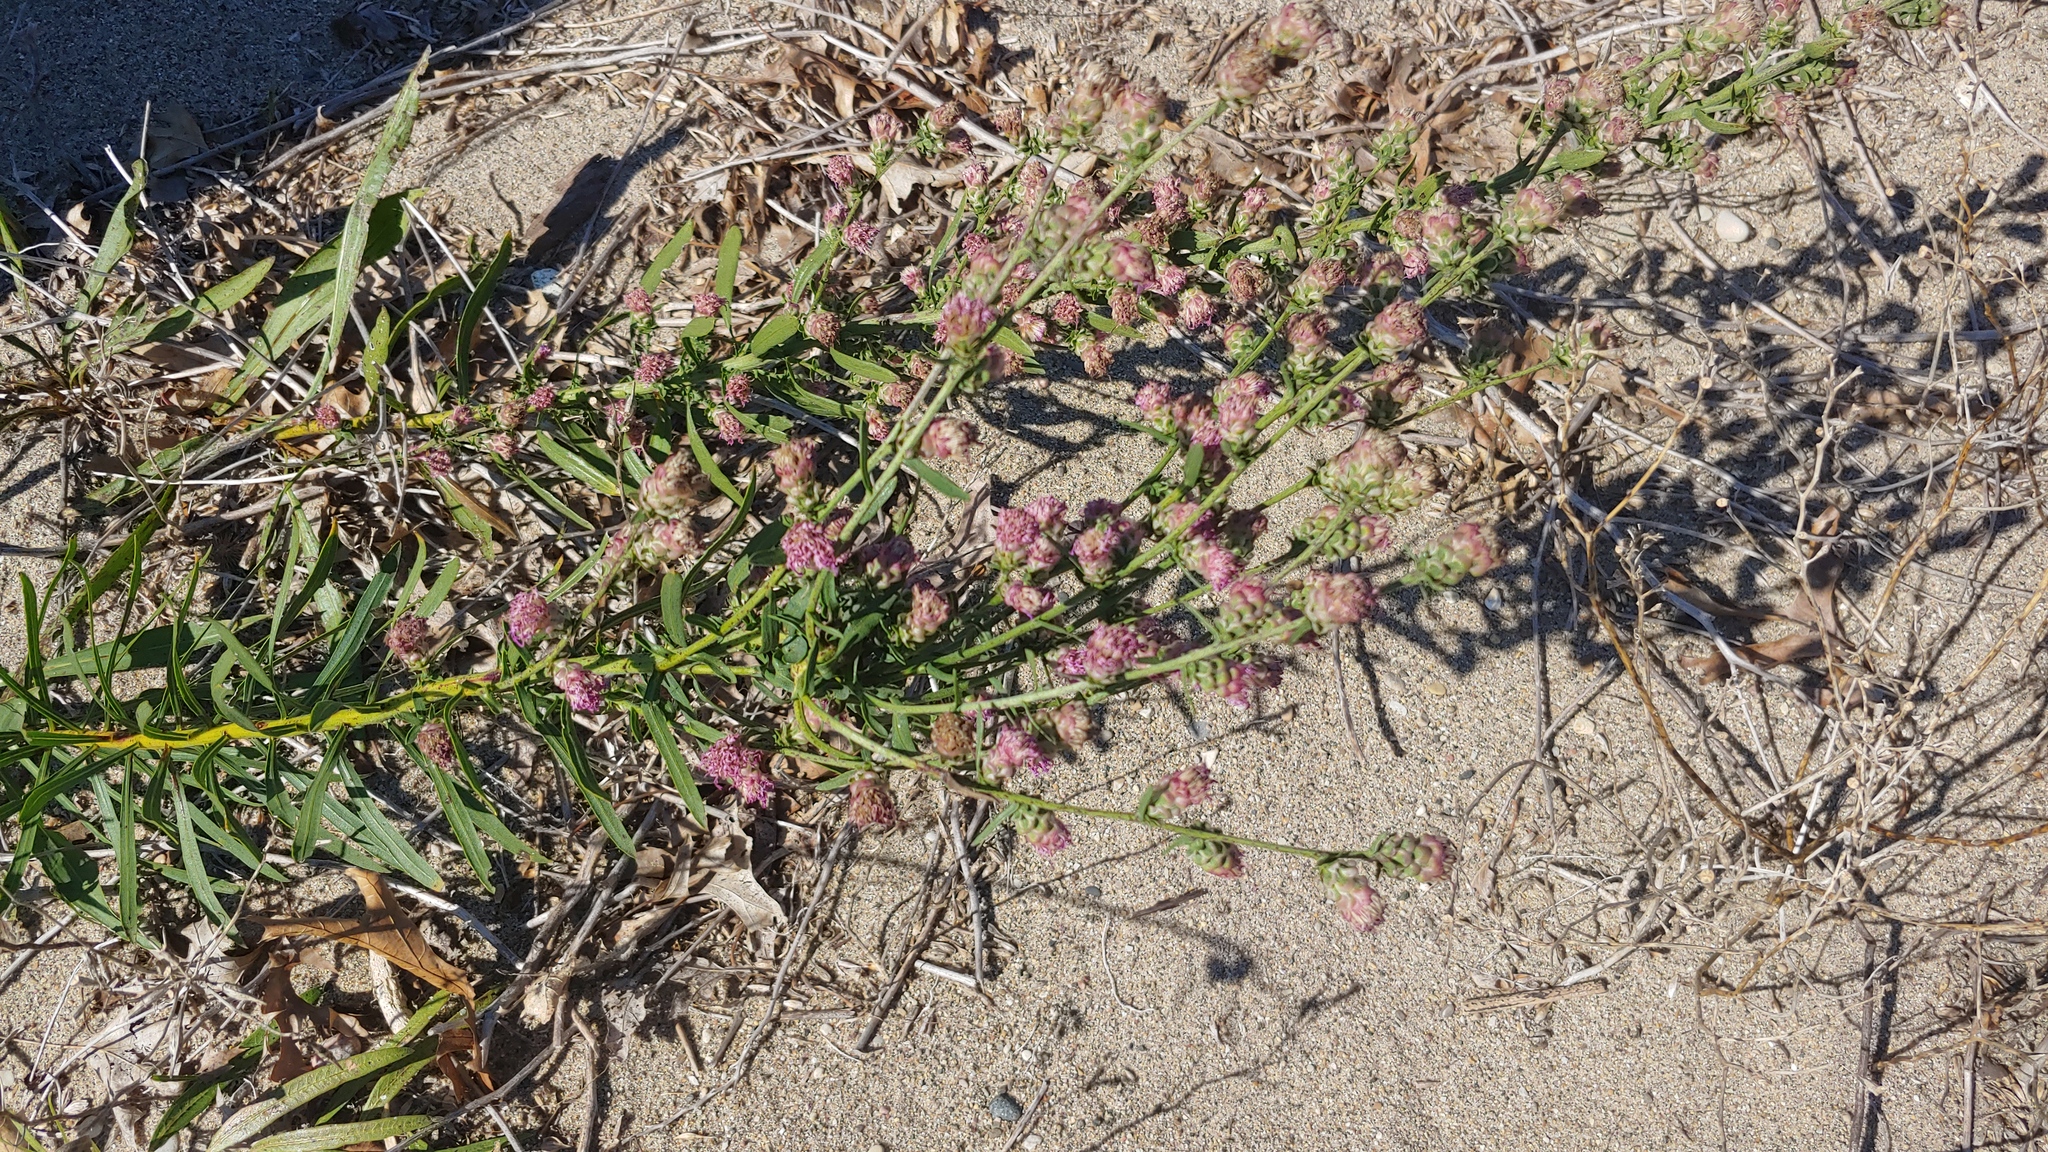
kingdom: Plantae
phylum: Tracheophyta
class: Magnoliopsida
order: Asterales
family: Asteraceae
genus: Liatris
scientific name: Liatris aspera
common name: Lacerate blazing-star
